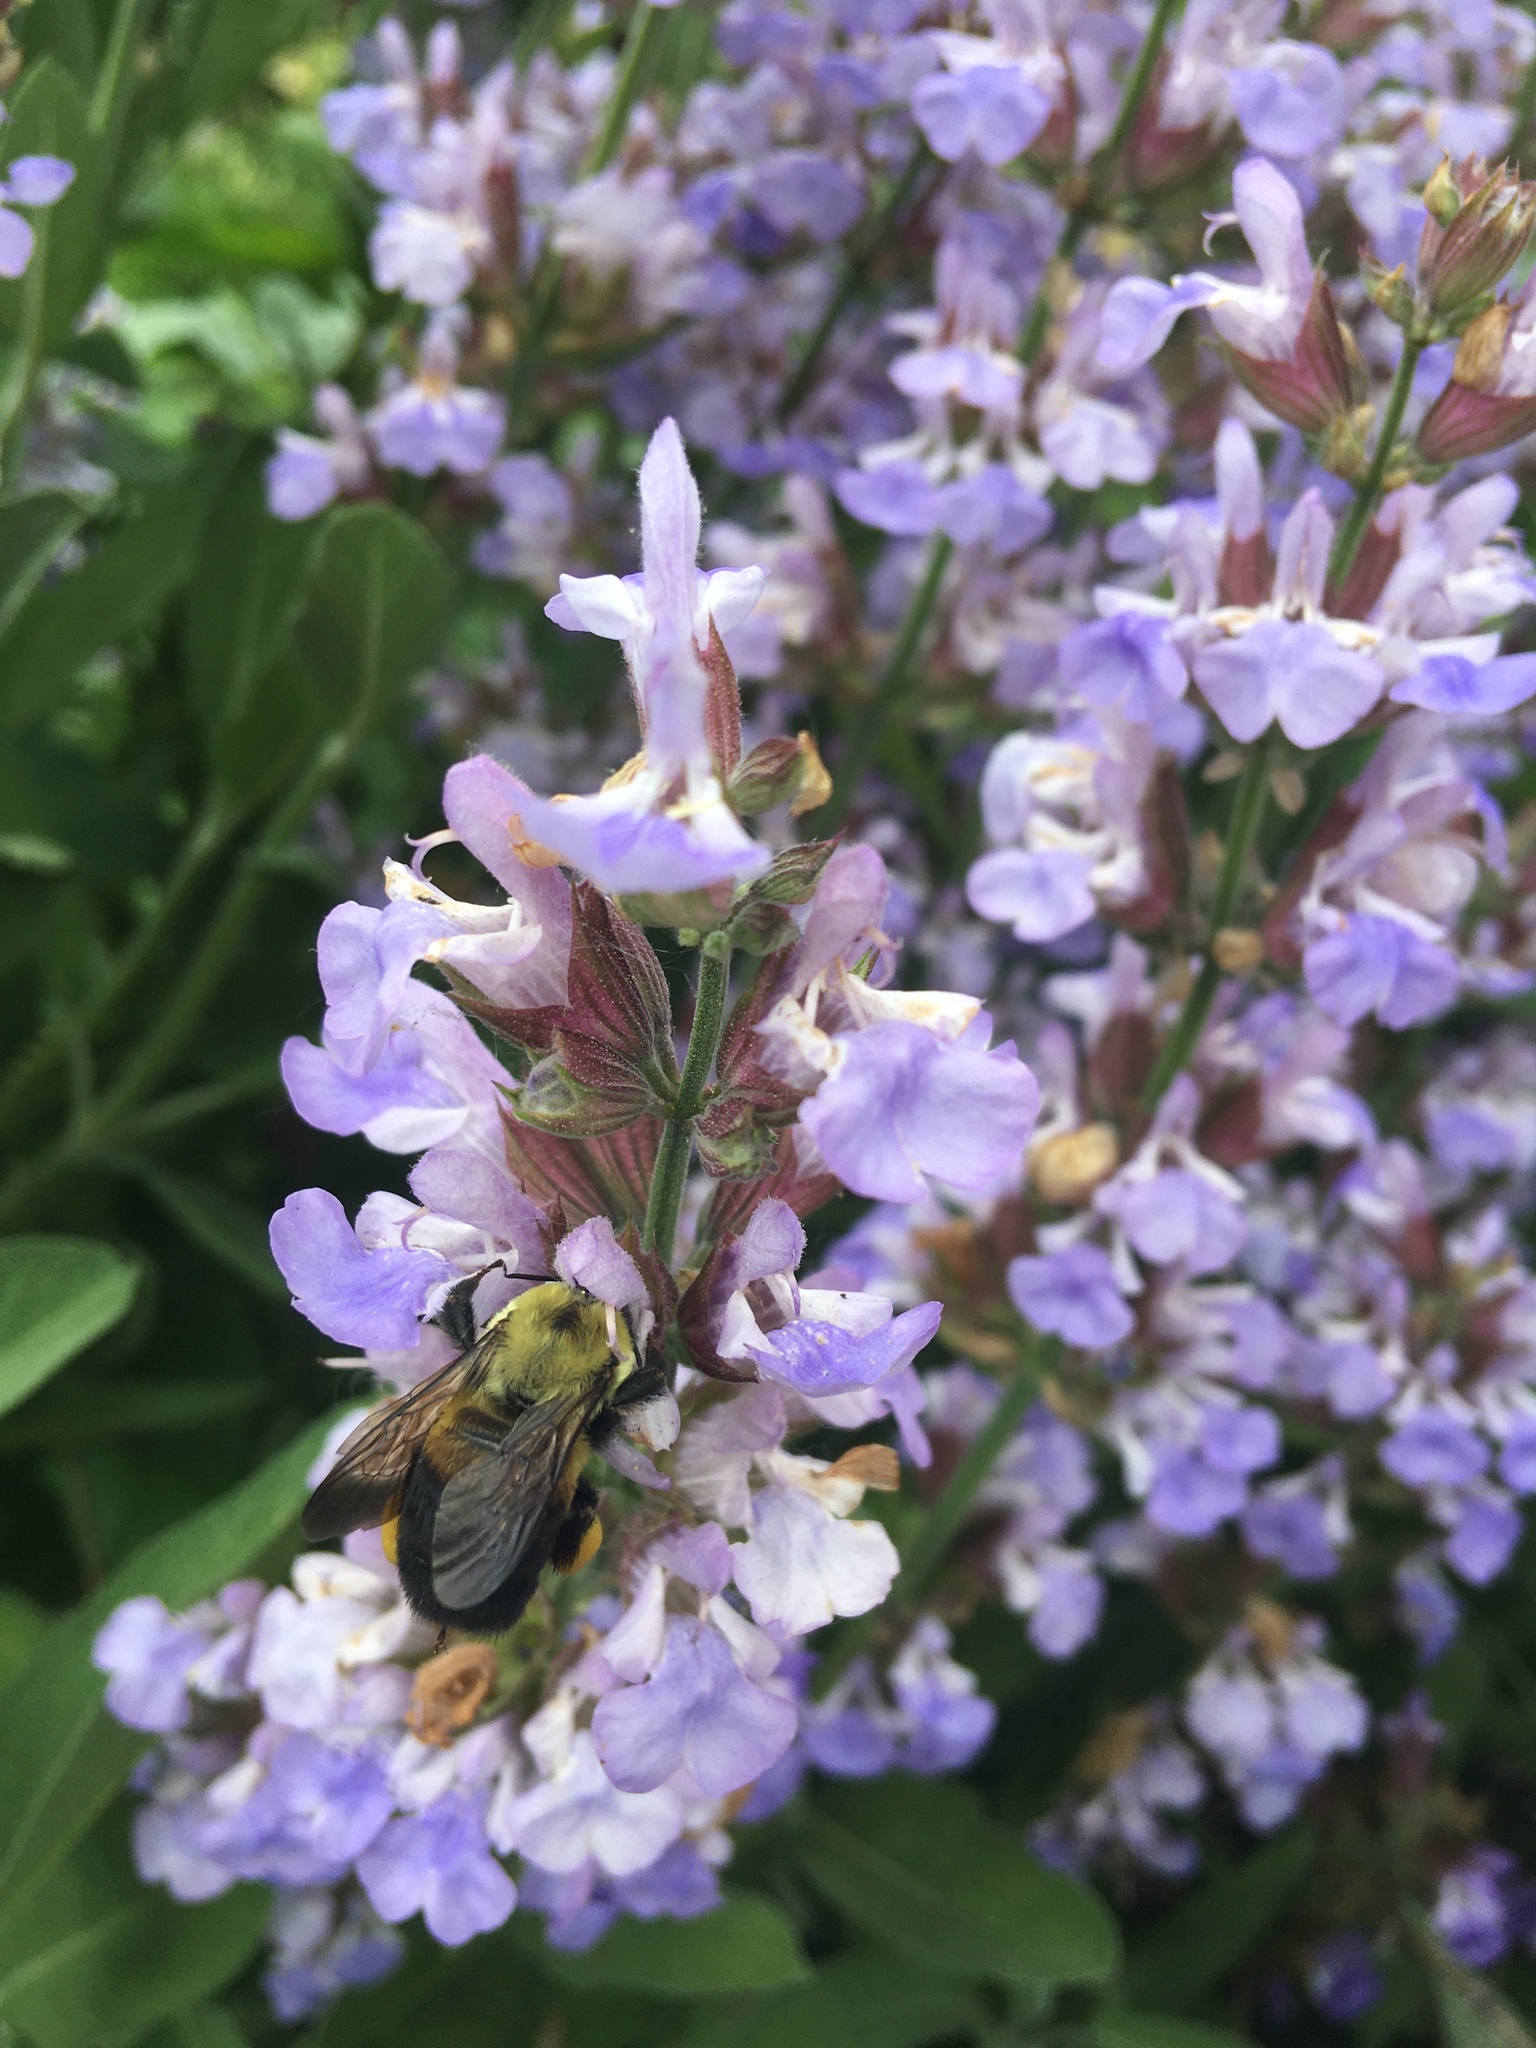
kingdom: Animalia
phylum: Arthropoda
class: Insecta
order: Hymenoptera
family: Apidae
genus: Bombus
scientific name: Bombus griseocollis
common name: Brown-belted bumble bee
